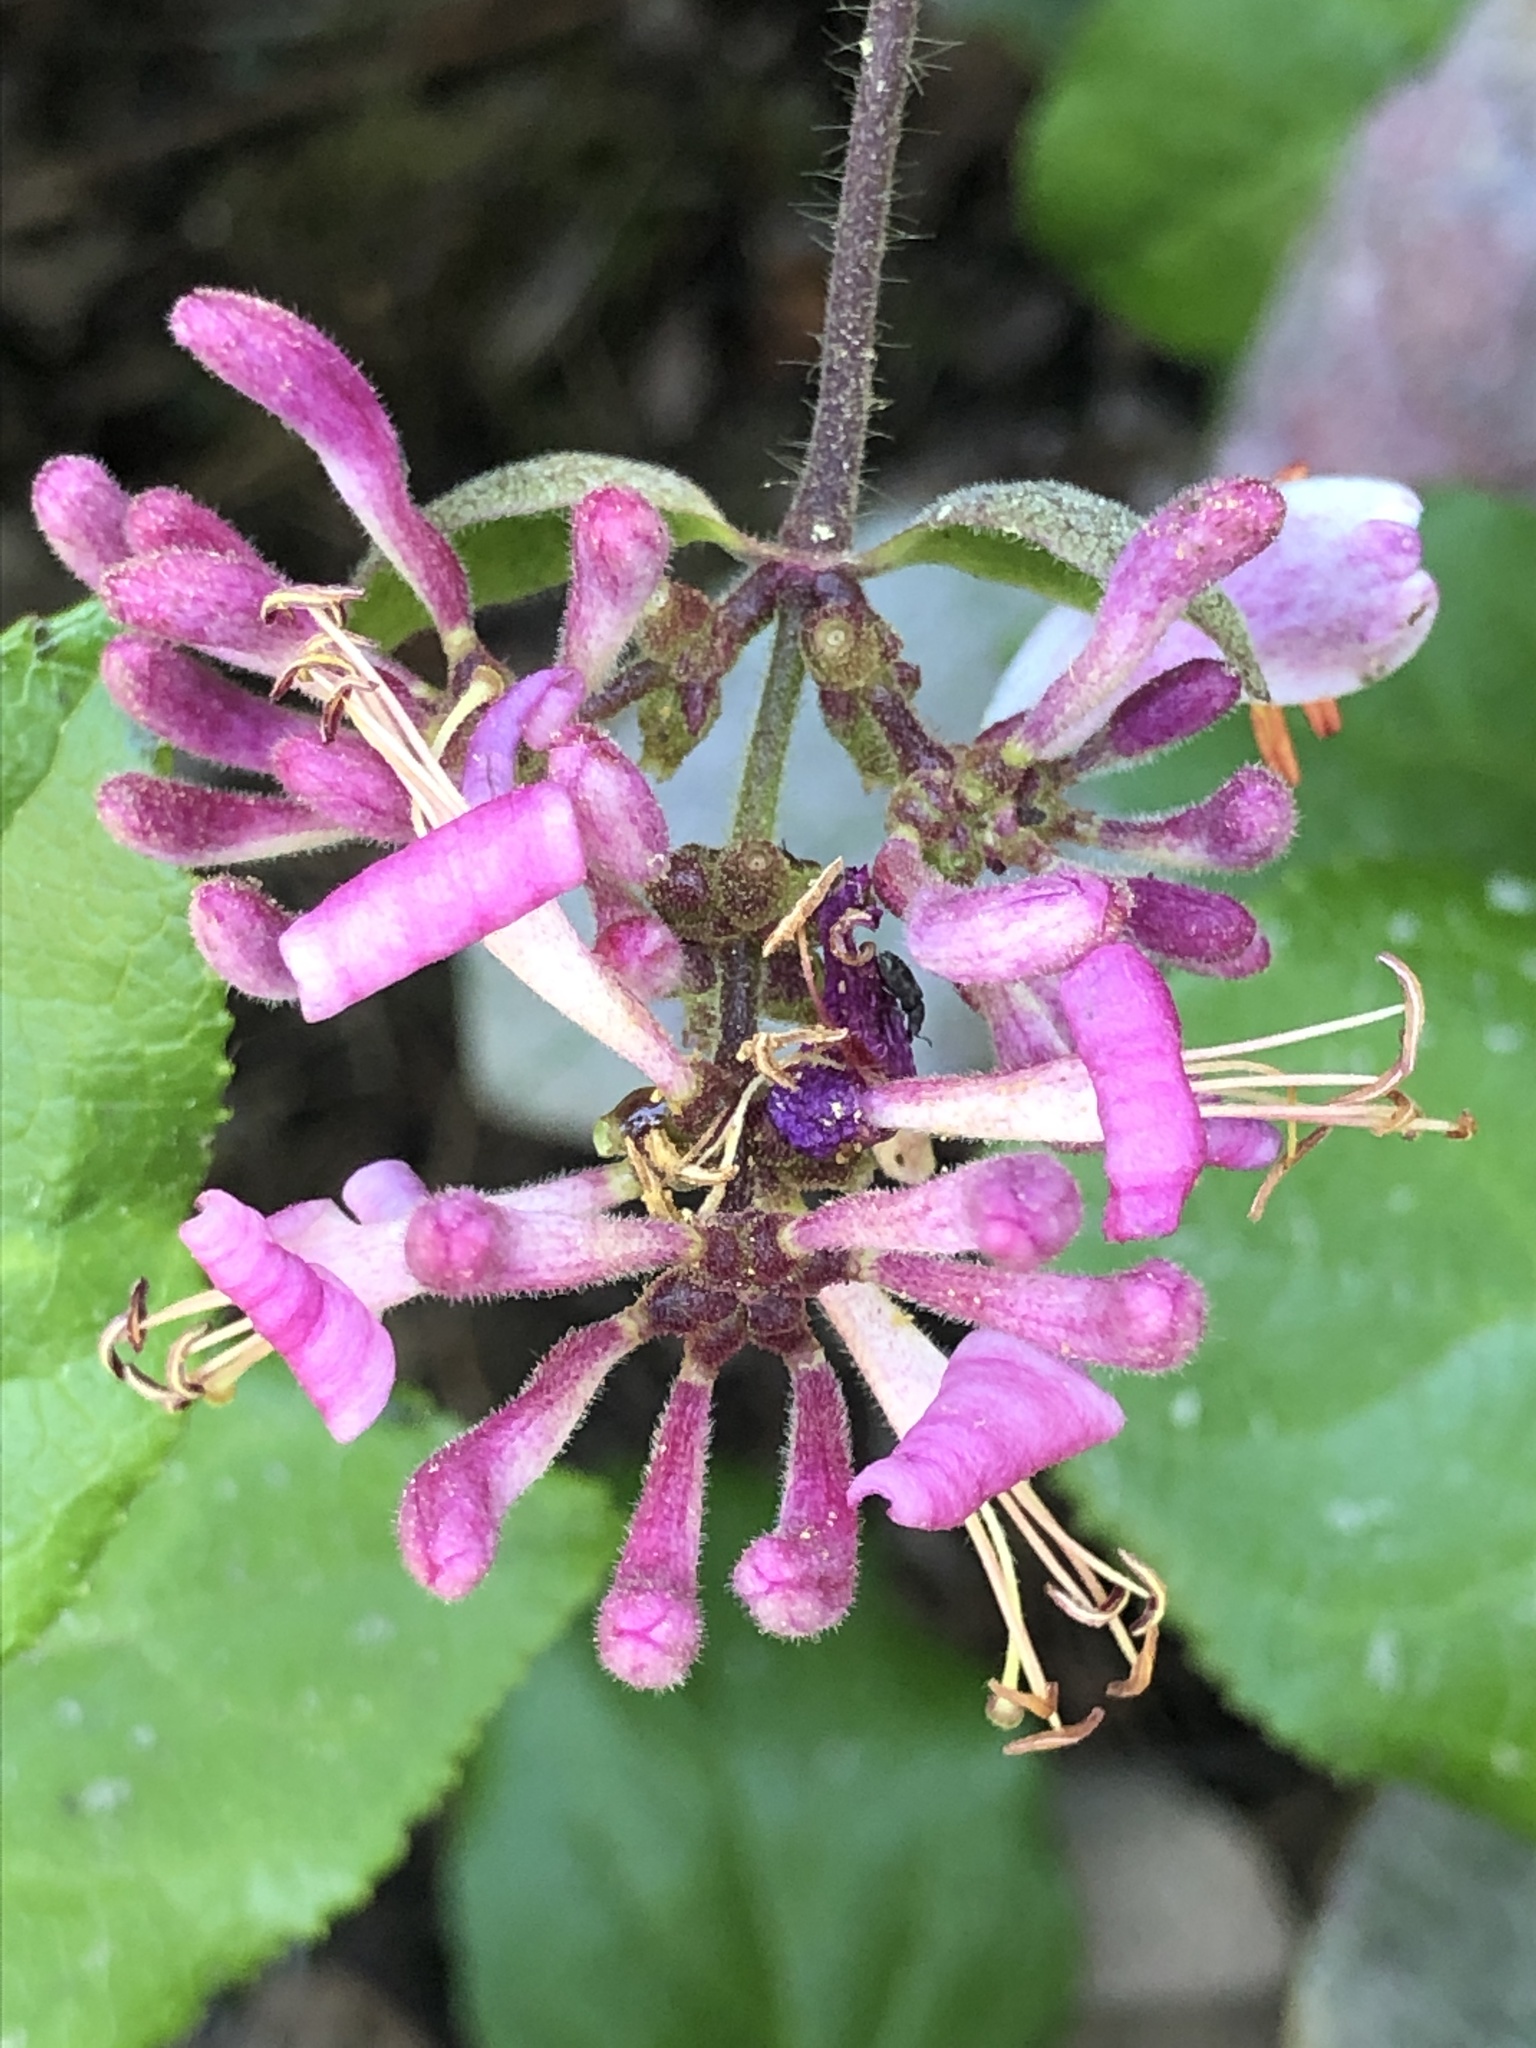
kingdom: Plantae
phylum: Tracheophyta
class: Magnoliopsida
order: Dipsacales
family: Caprifoliaceae
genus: Lonicera
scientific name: Lonicera hispidula
